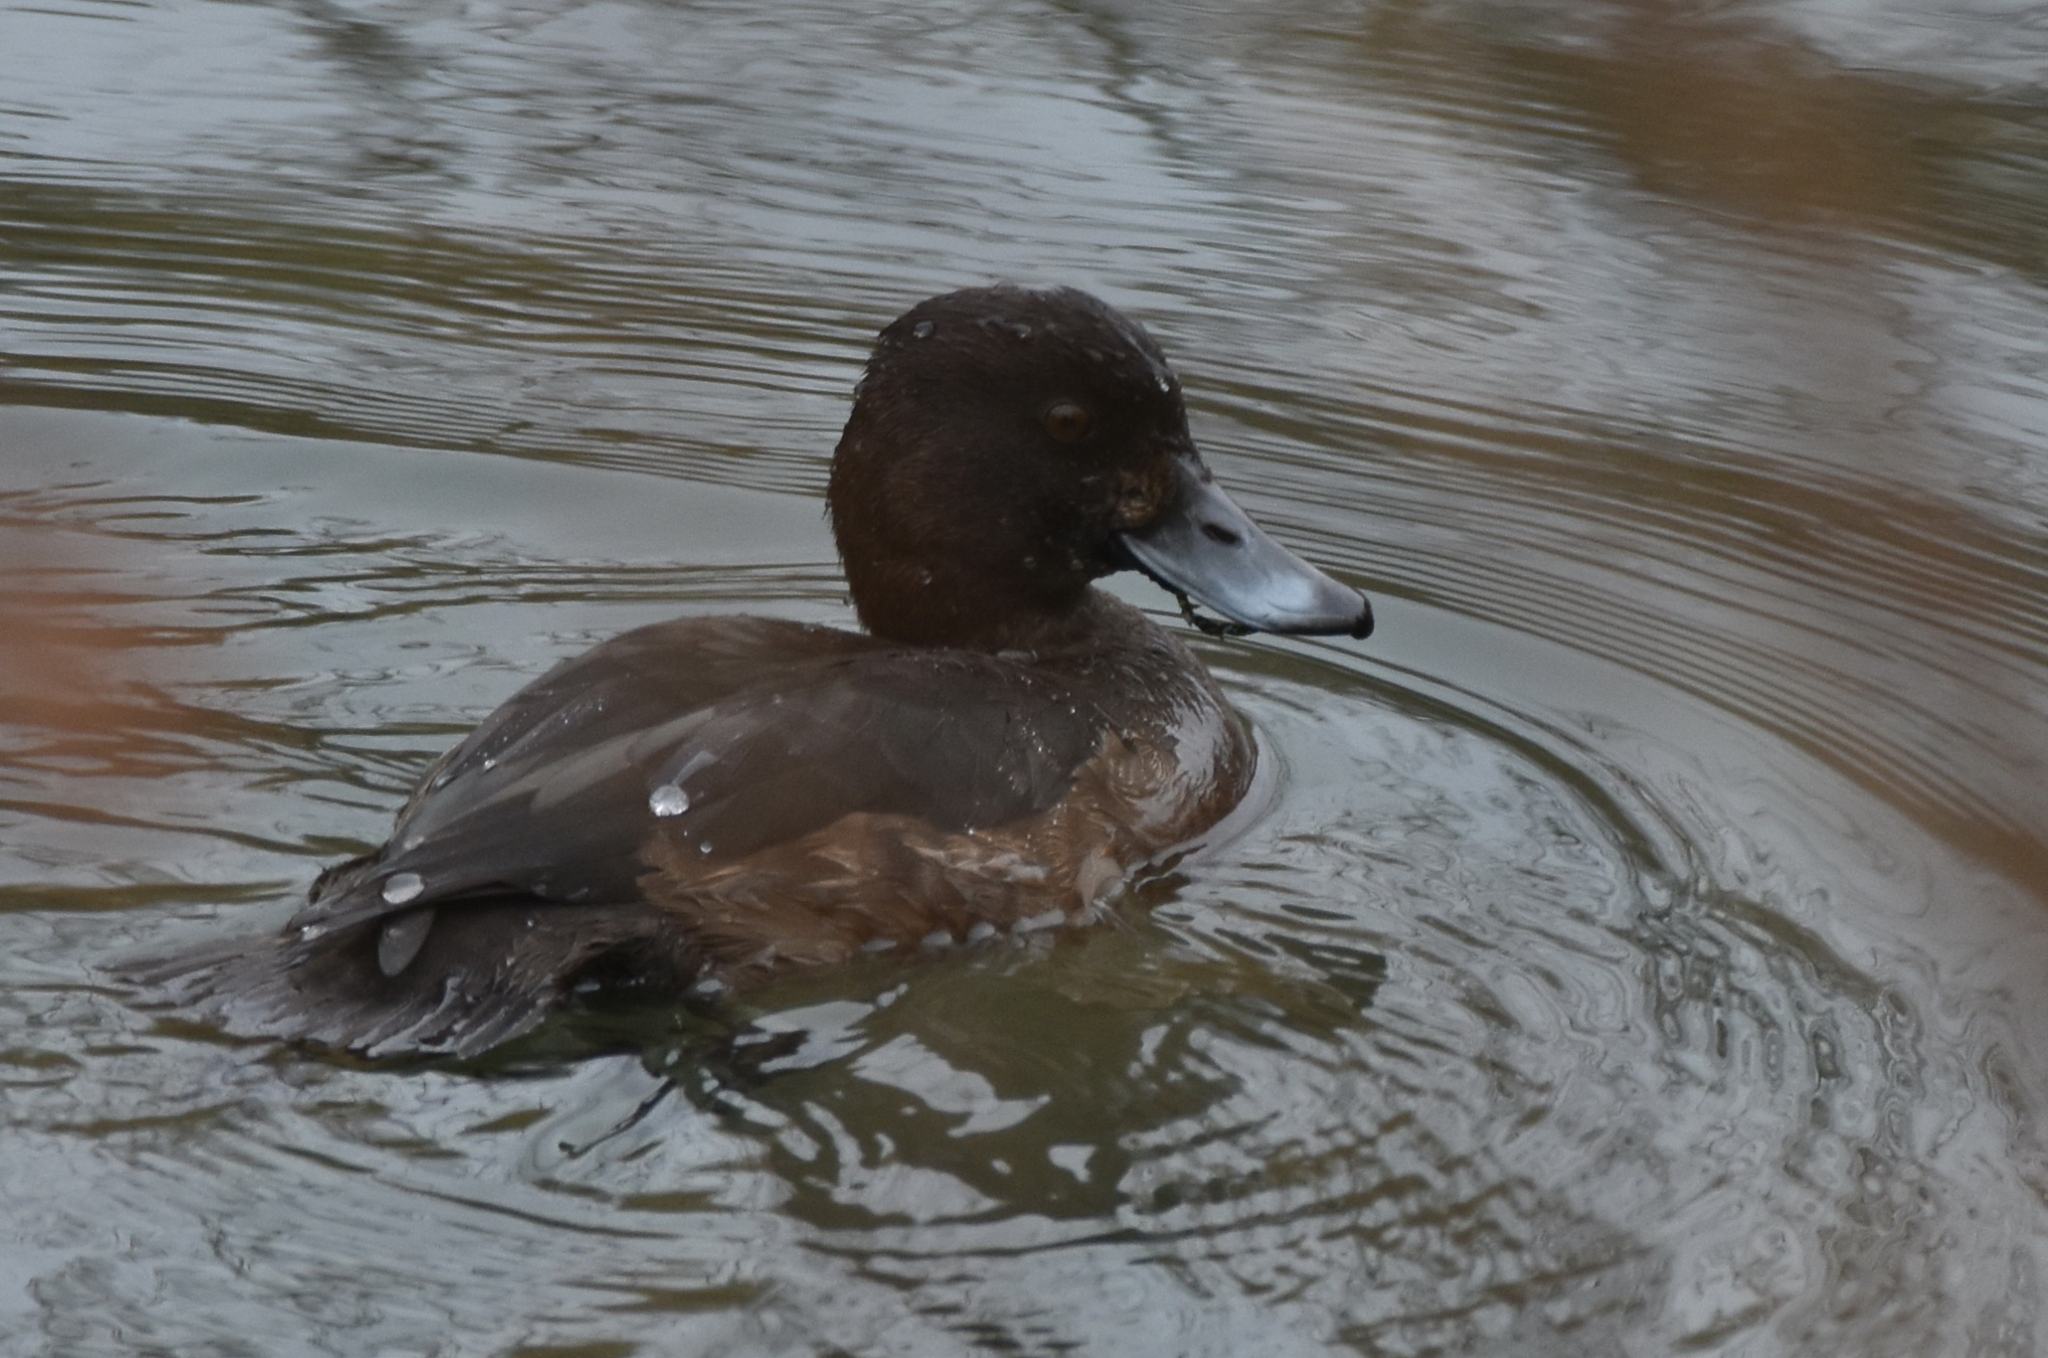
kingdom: Animalia
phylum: Chordata
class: Aves
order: Anseriformes
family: Anatidae
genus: Aythya
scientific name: Aythya fuligula
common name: Tufted duck
